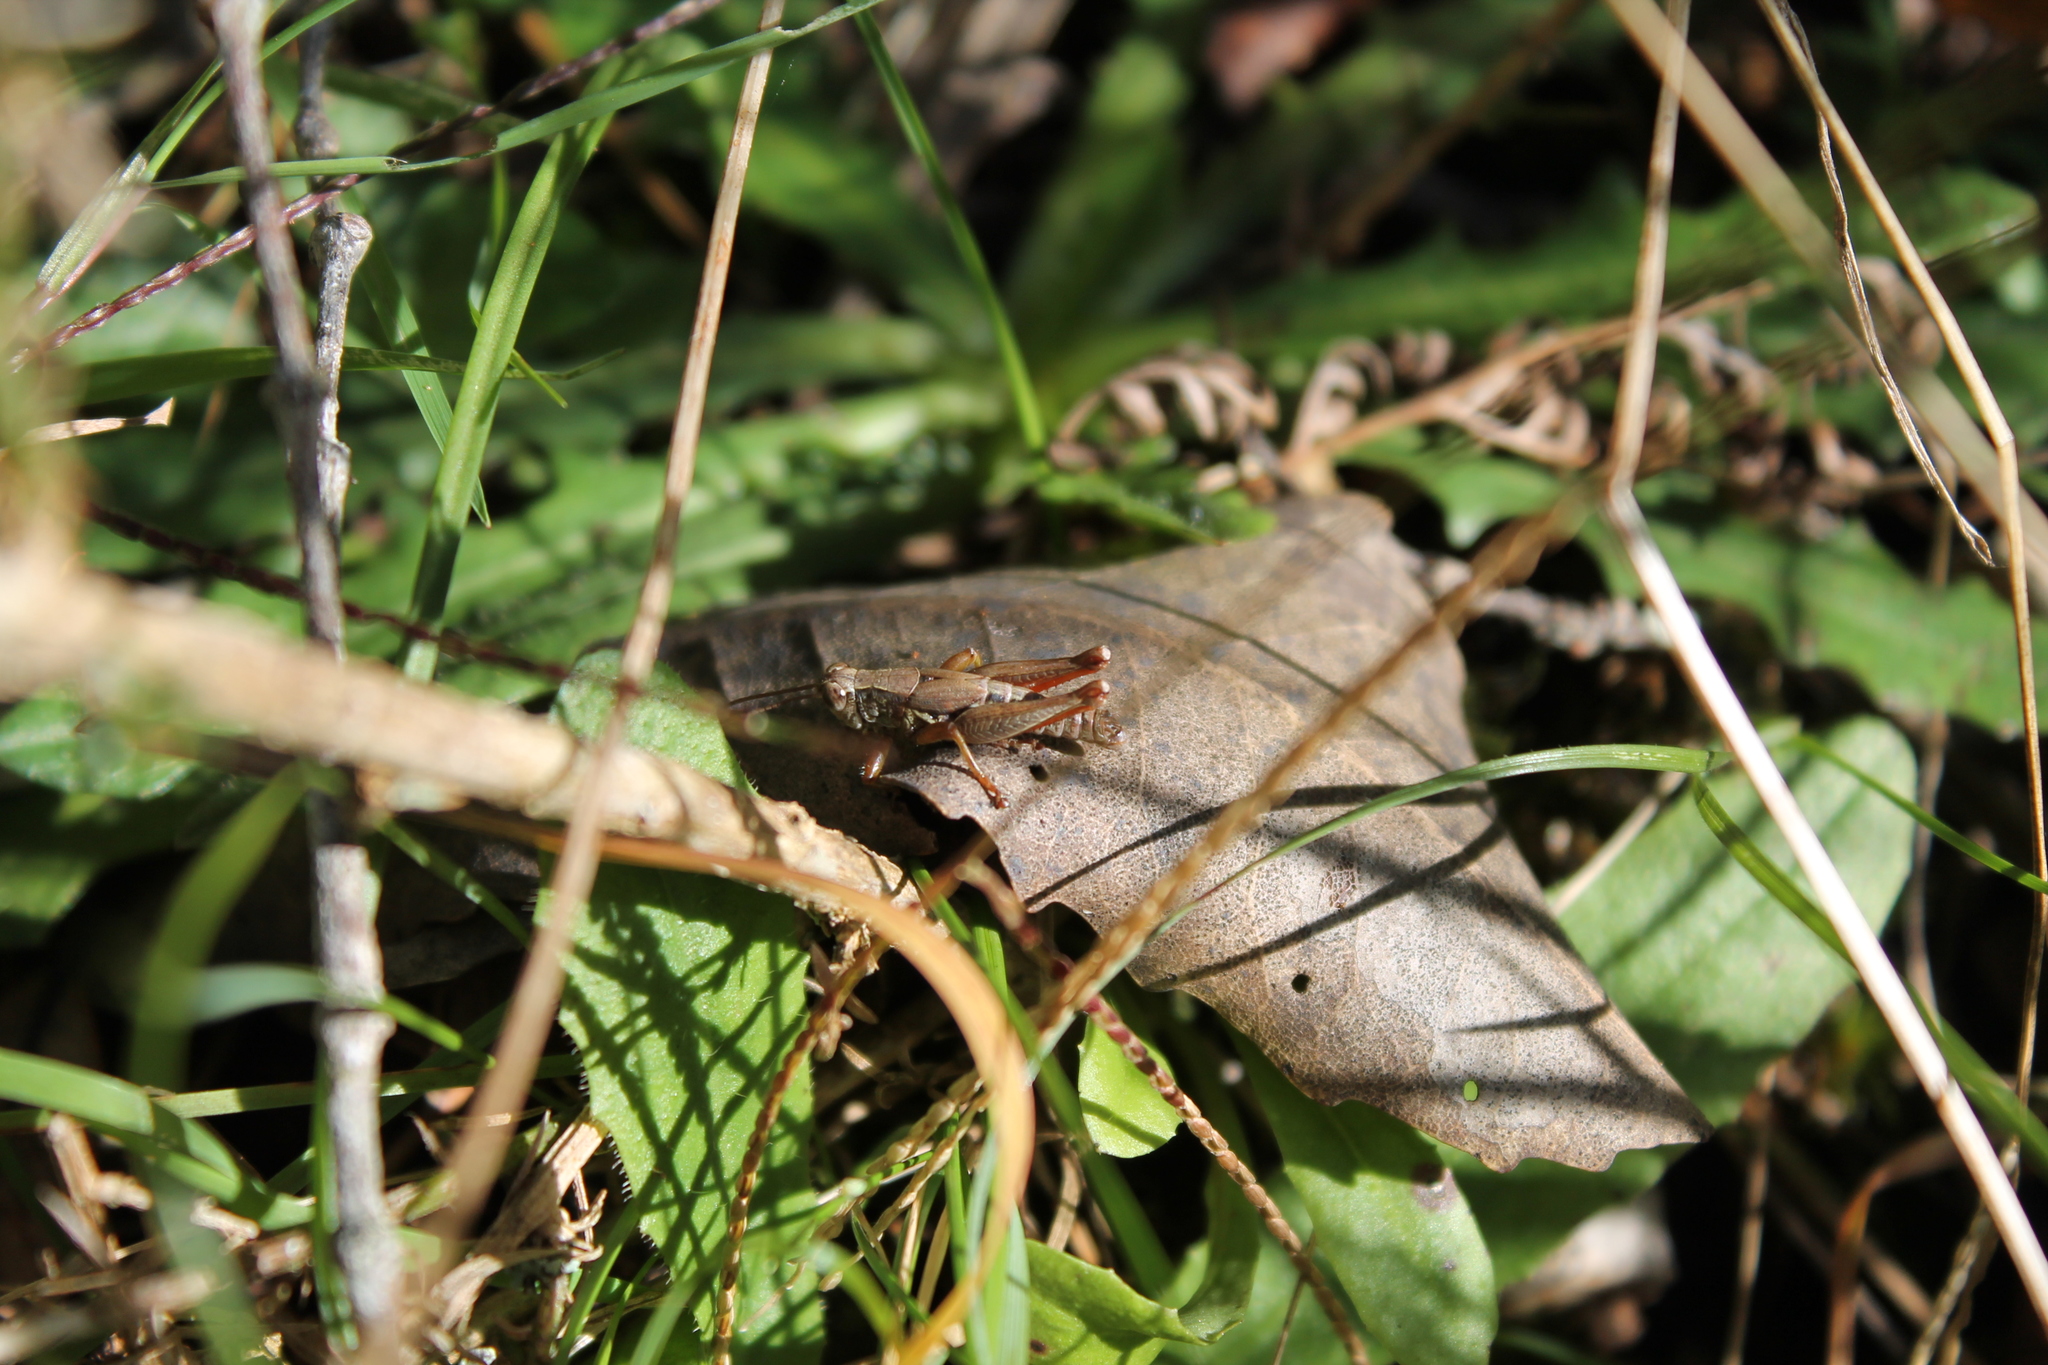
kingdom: Animalia
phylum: Arthropoda
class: Insecta
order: Orthoptera
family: Acrididae
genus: Phaulacridium
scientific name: Phaulacridium marginale
